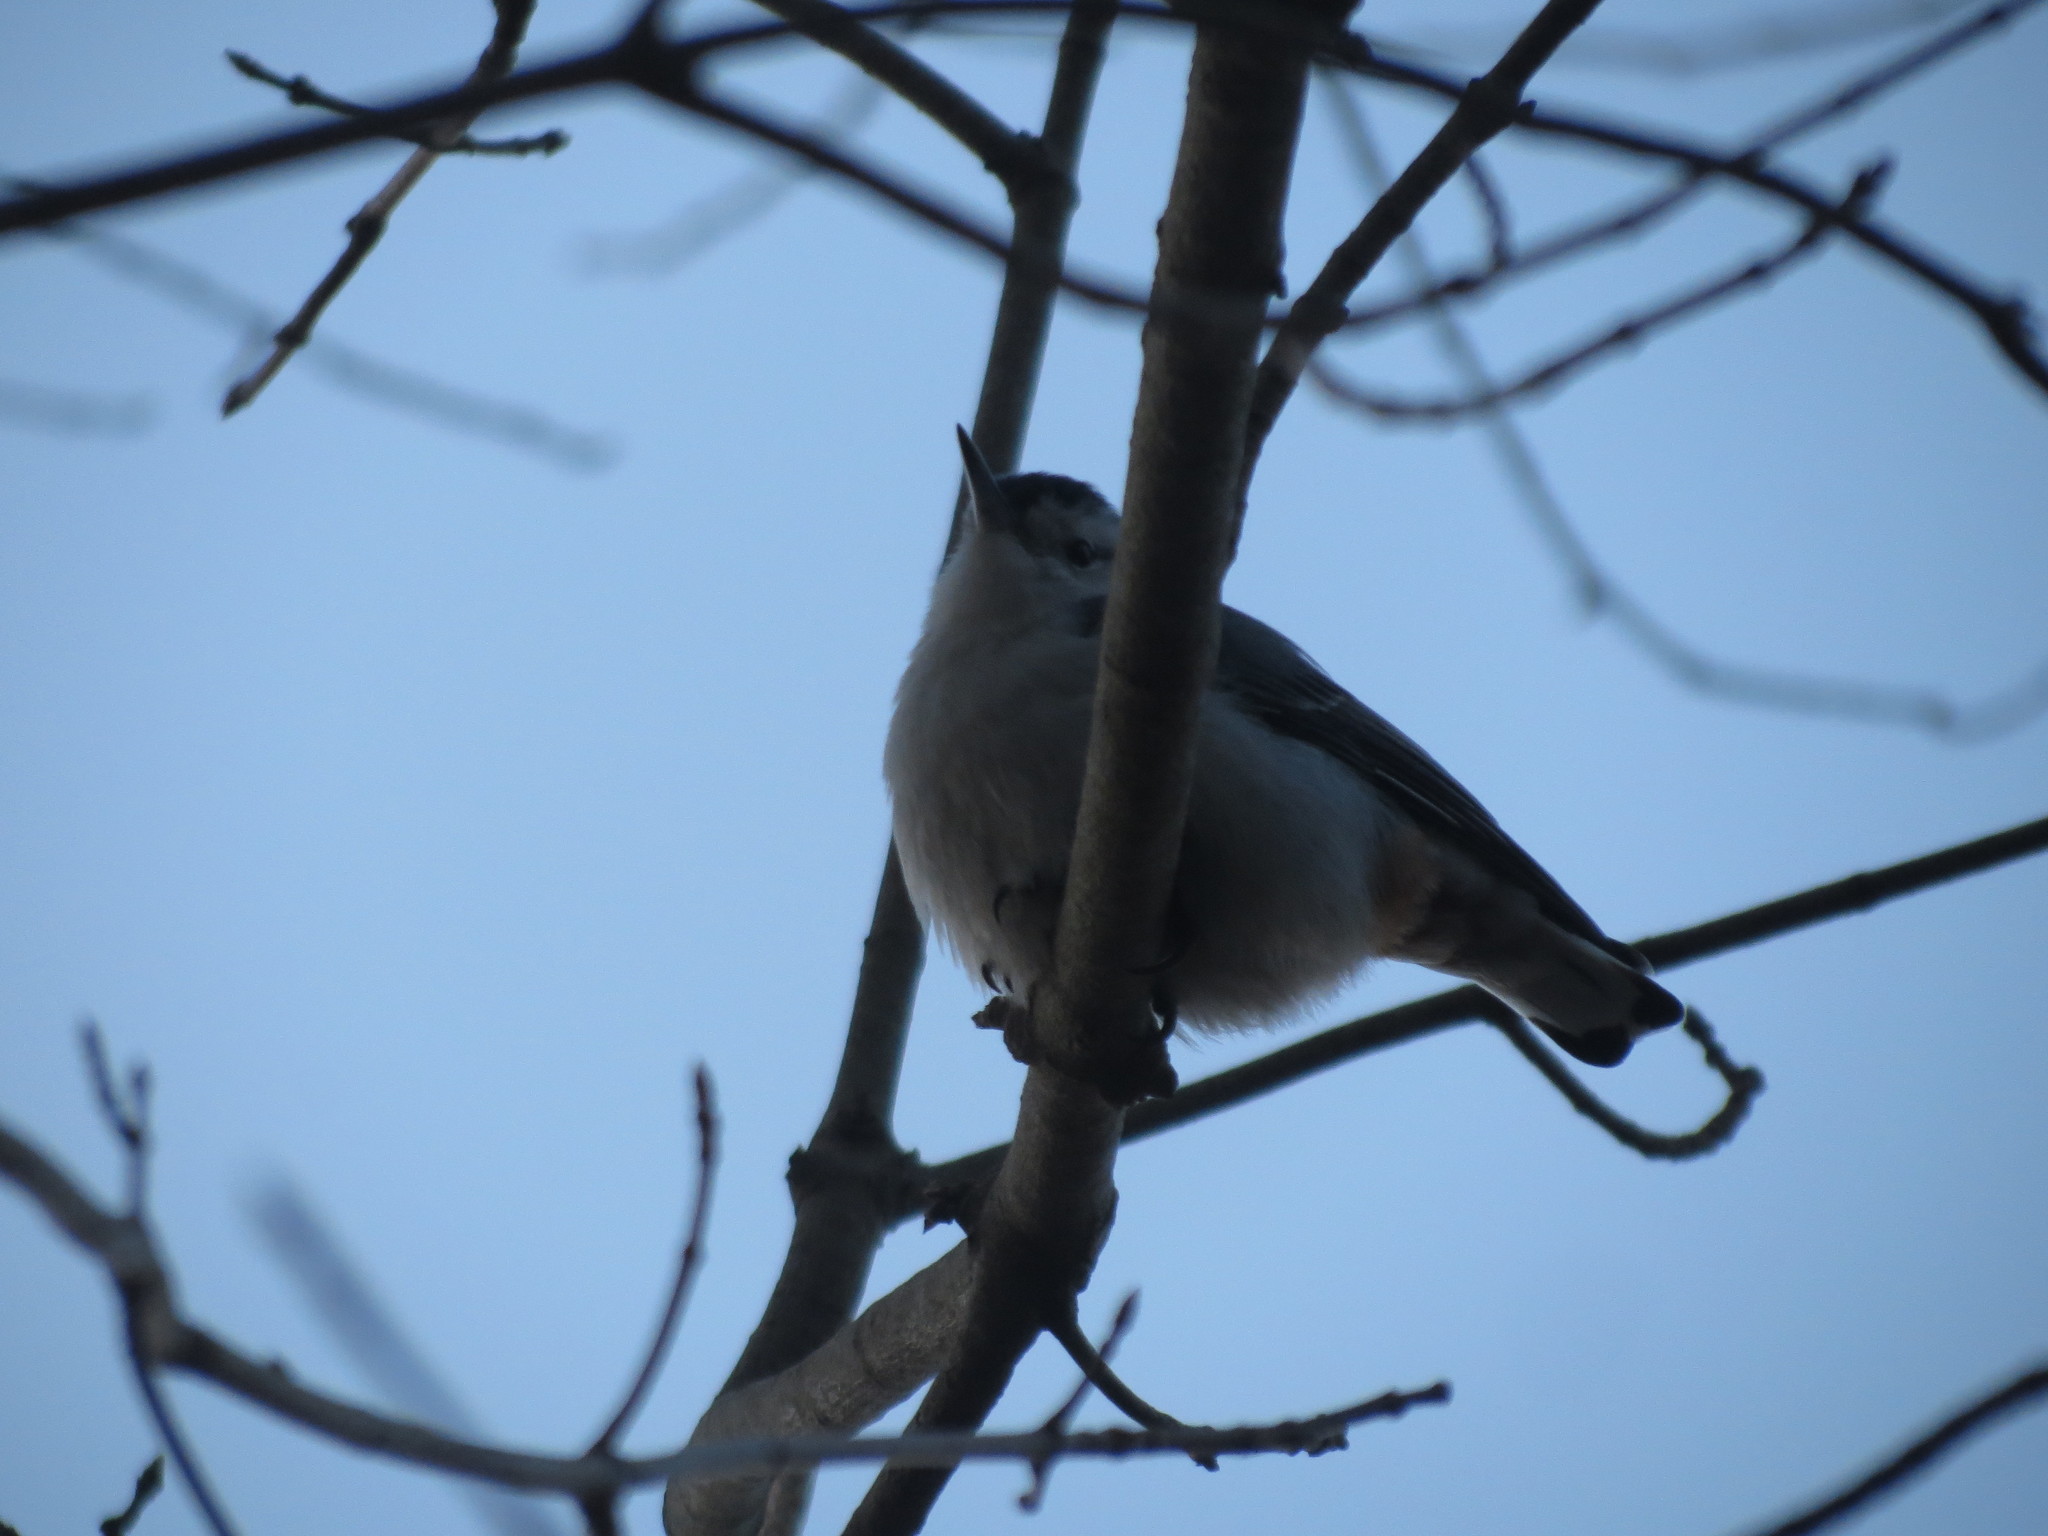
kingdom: Animalia
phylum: Chordata
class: Aves
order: Passeriformes
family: Sittidae
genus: Sitta
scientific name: Sitta carolinensis
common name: White-breasted nuthatch
